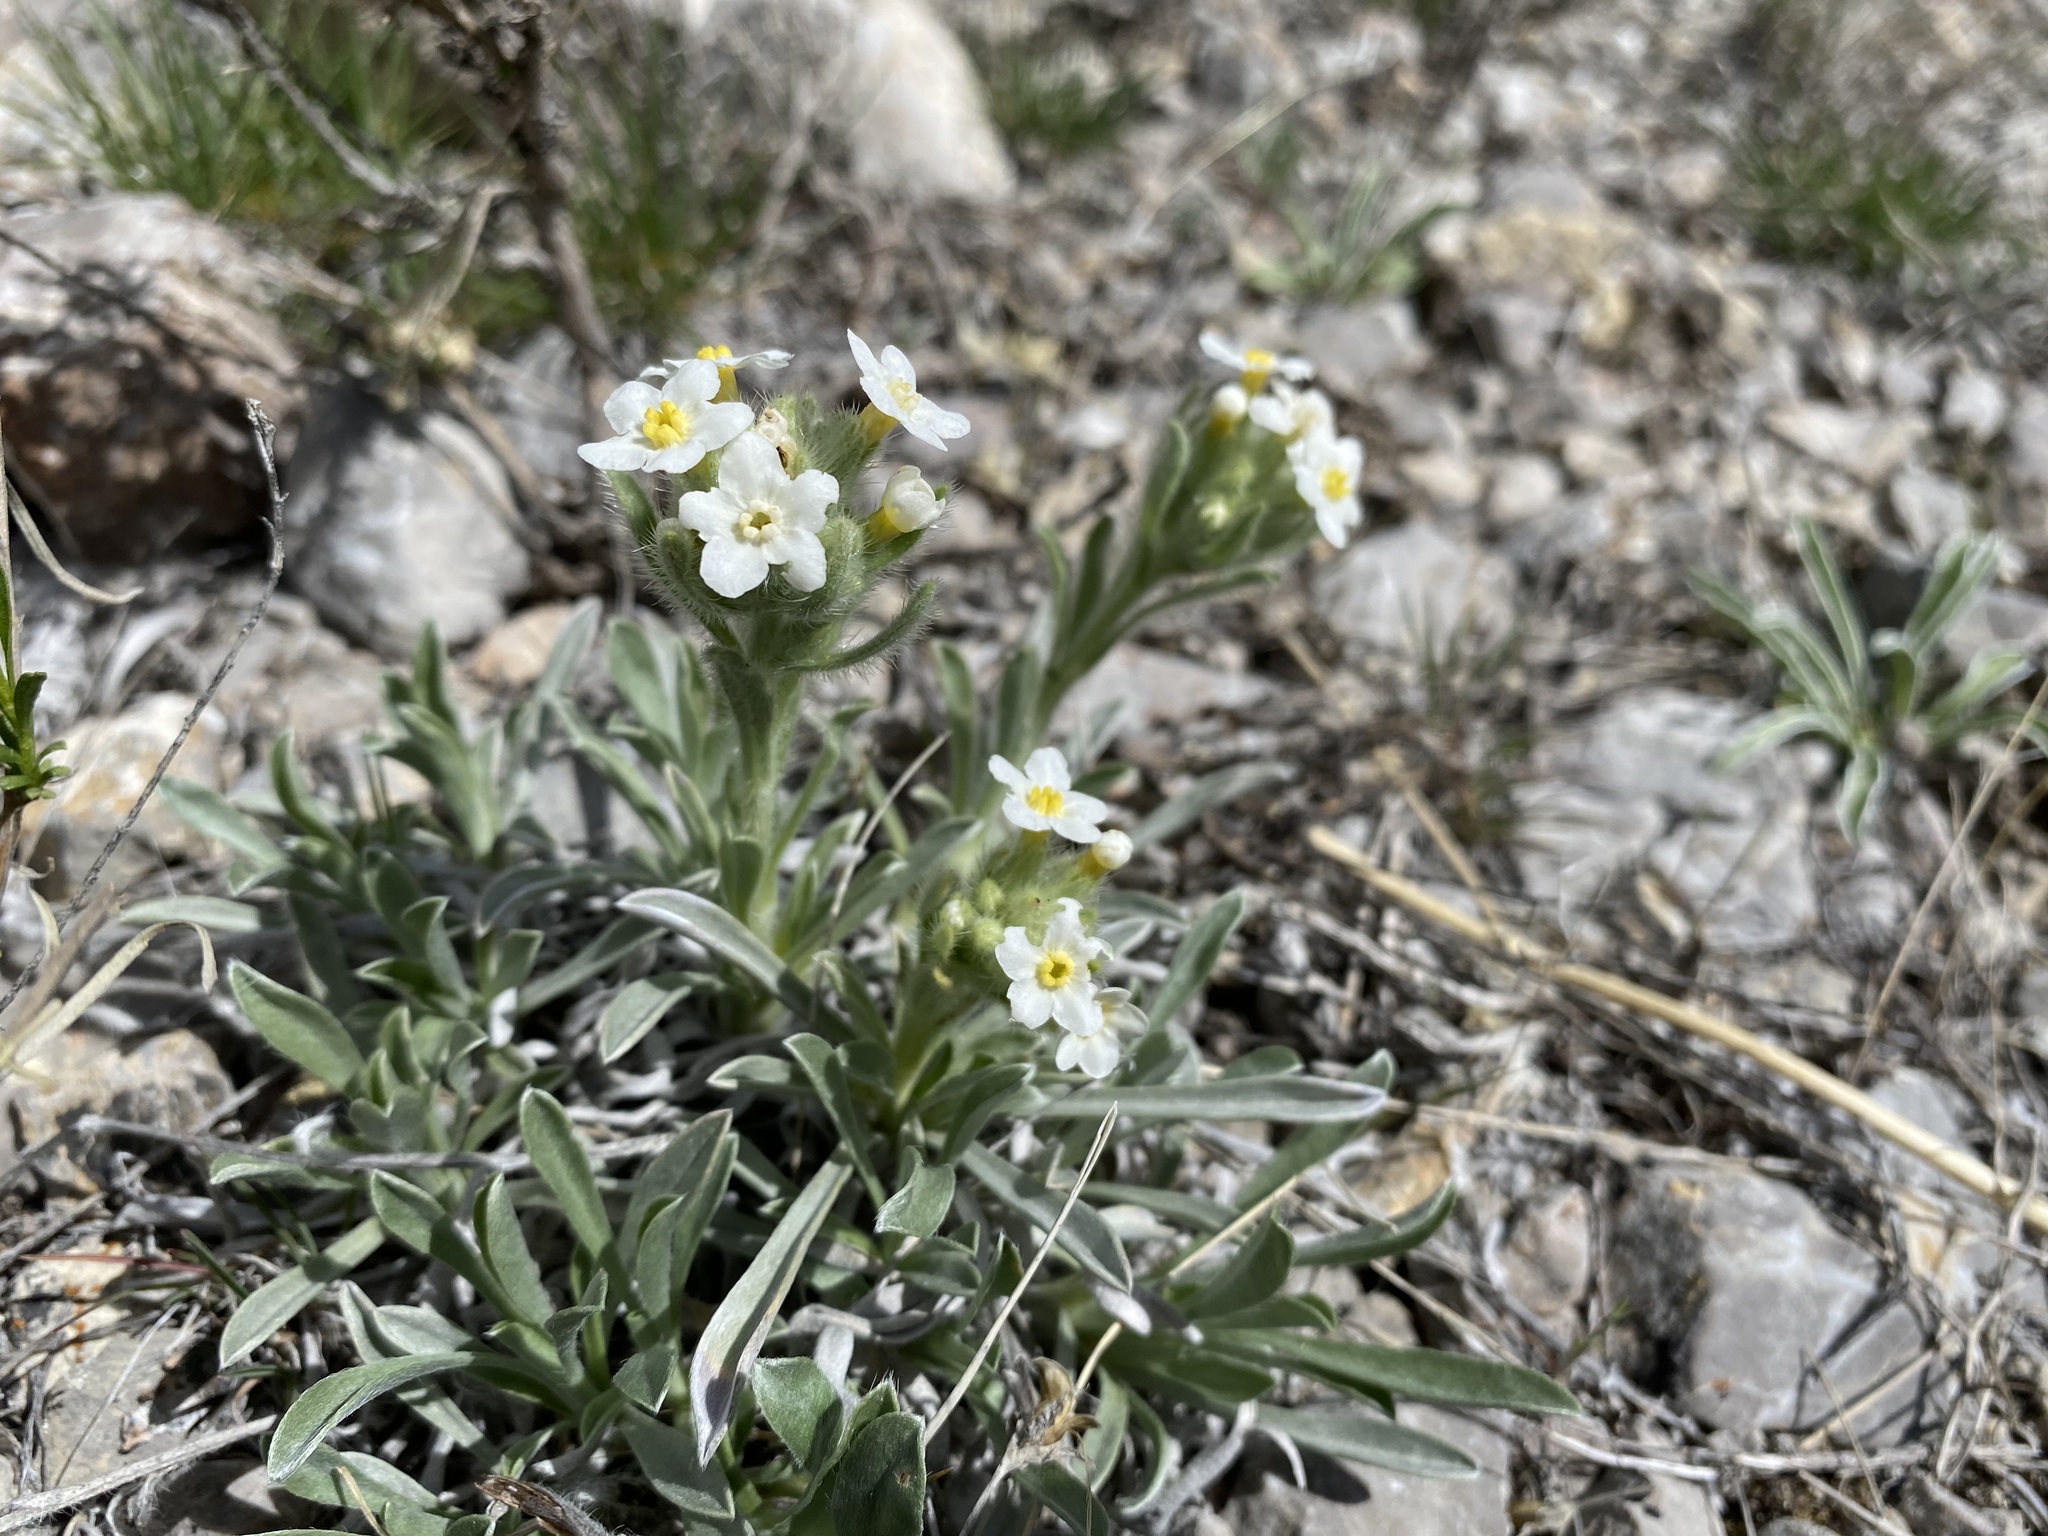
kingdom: Plantae
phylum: Tracheophyta
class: Magnoliopsida
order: Boraginales
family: Boraginaceae
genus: Oreocarya
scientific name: Oreocarya flavoculata
